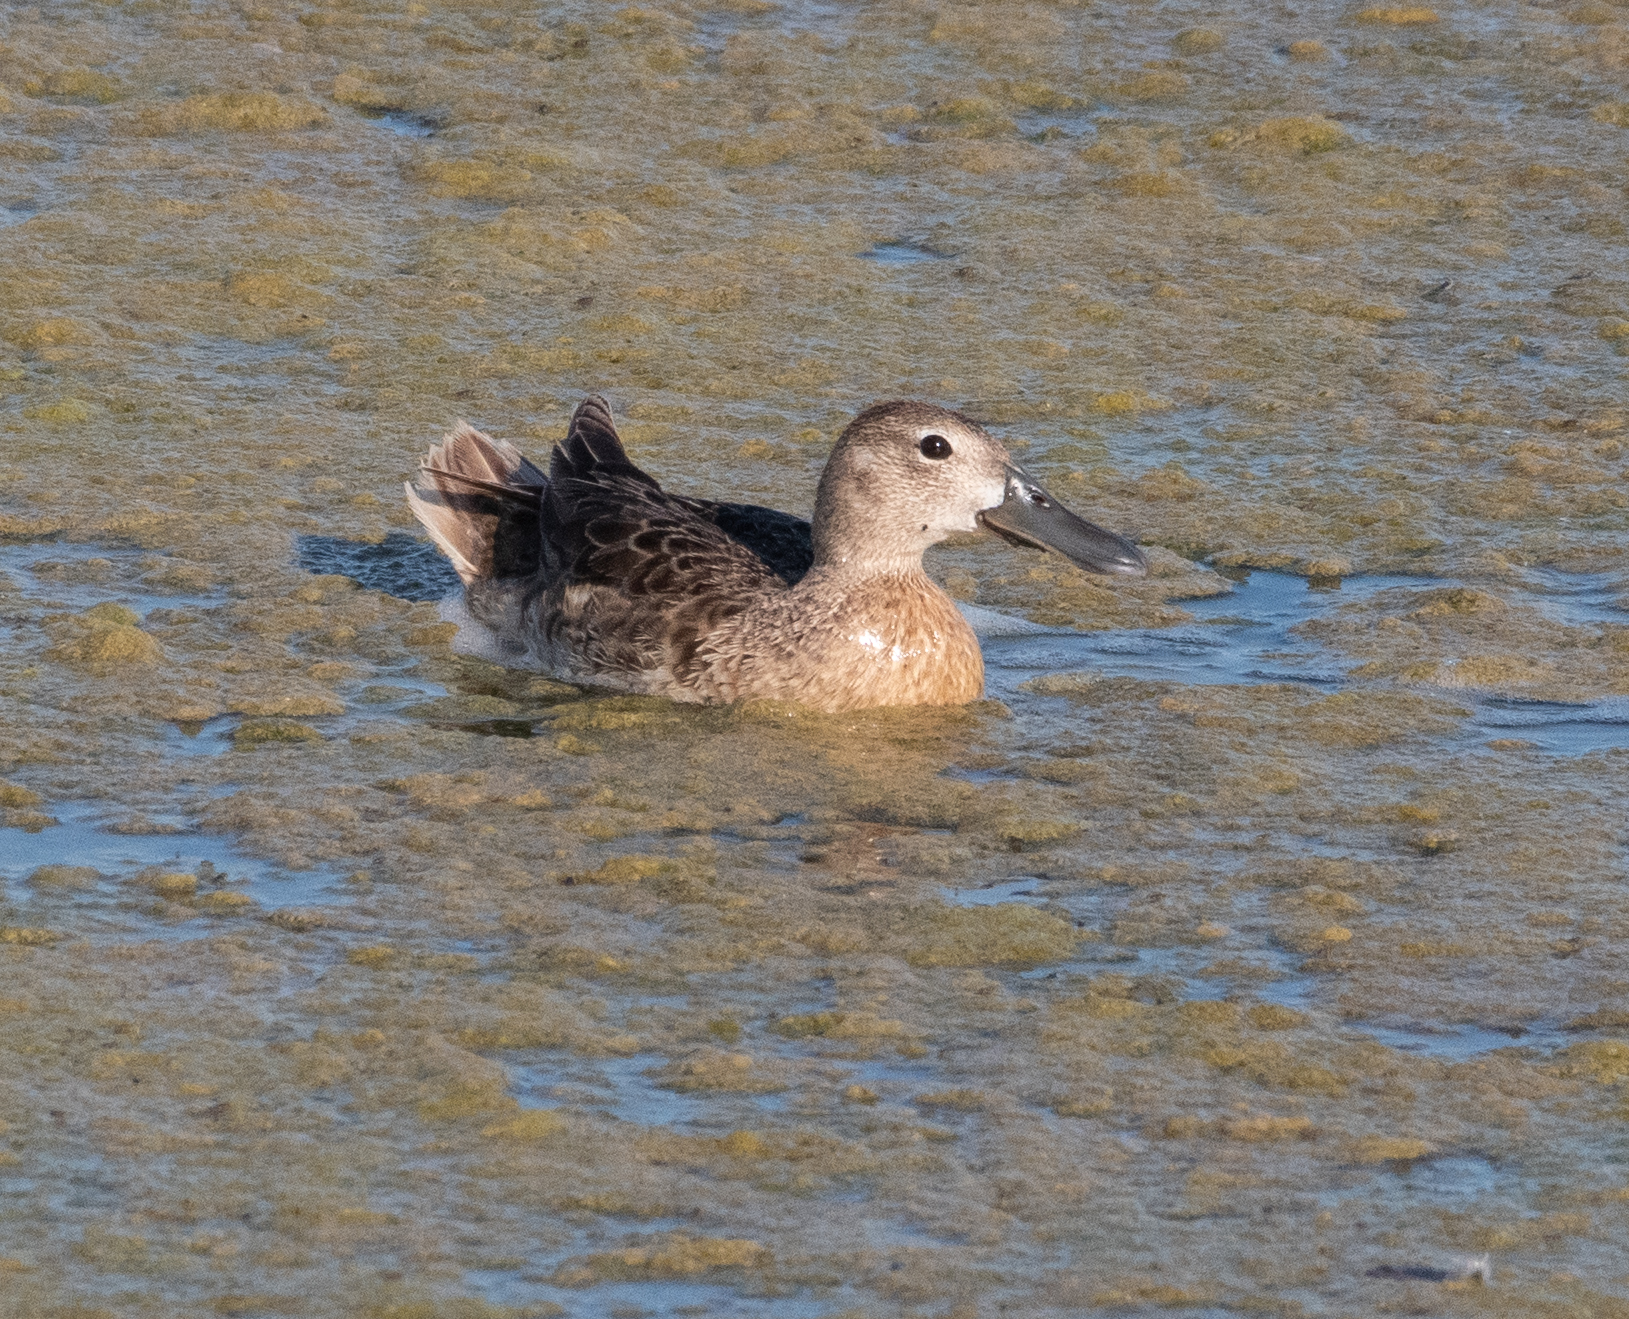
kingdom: Animalia
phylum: Chordata
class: Aves
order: Anseriformes
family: Anatidae
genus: Spatula
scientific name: Spatula cyanoptera
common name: Cinnamon teal
